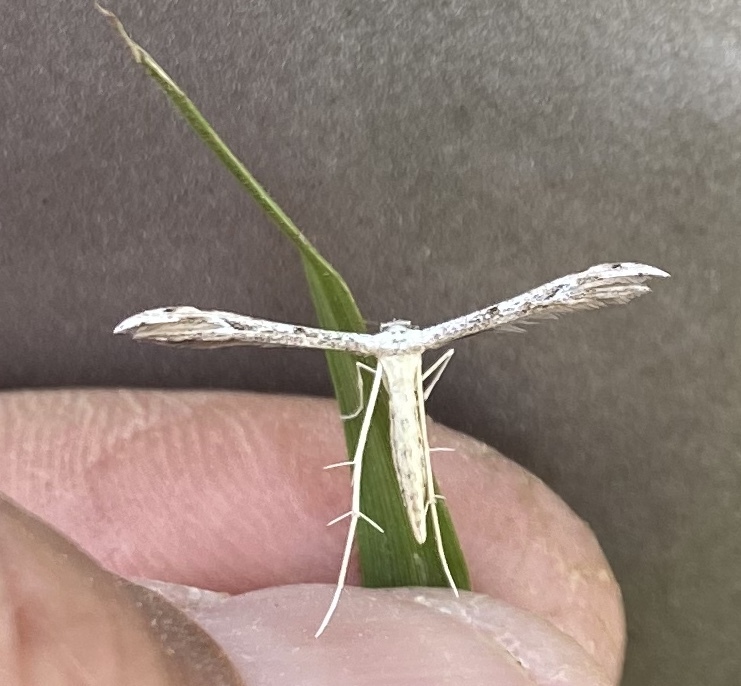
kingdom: Animalia
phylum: Arthropoda
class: Insecta
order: Lepidoptera
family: Pterophoridae
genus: Pselnophorus
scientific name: Pselnophorus belfragei
